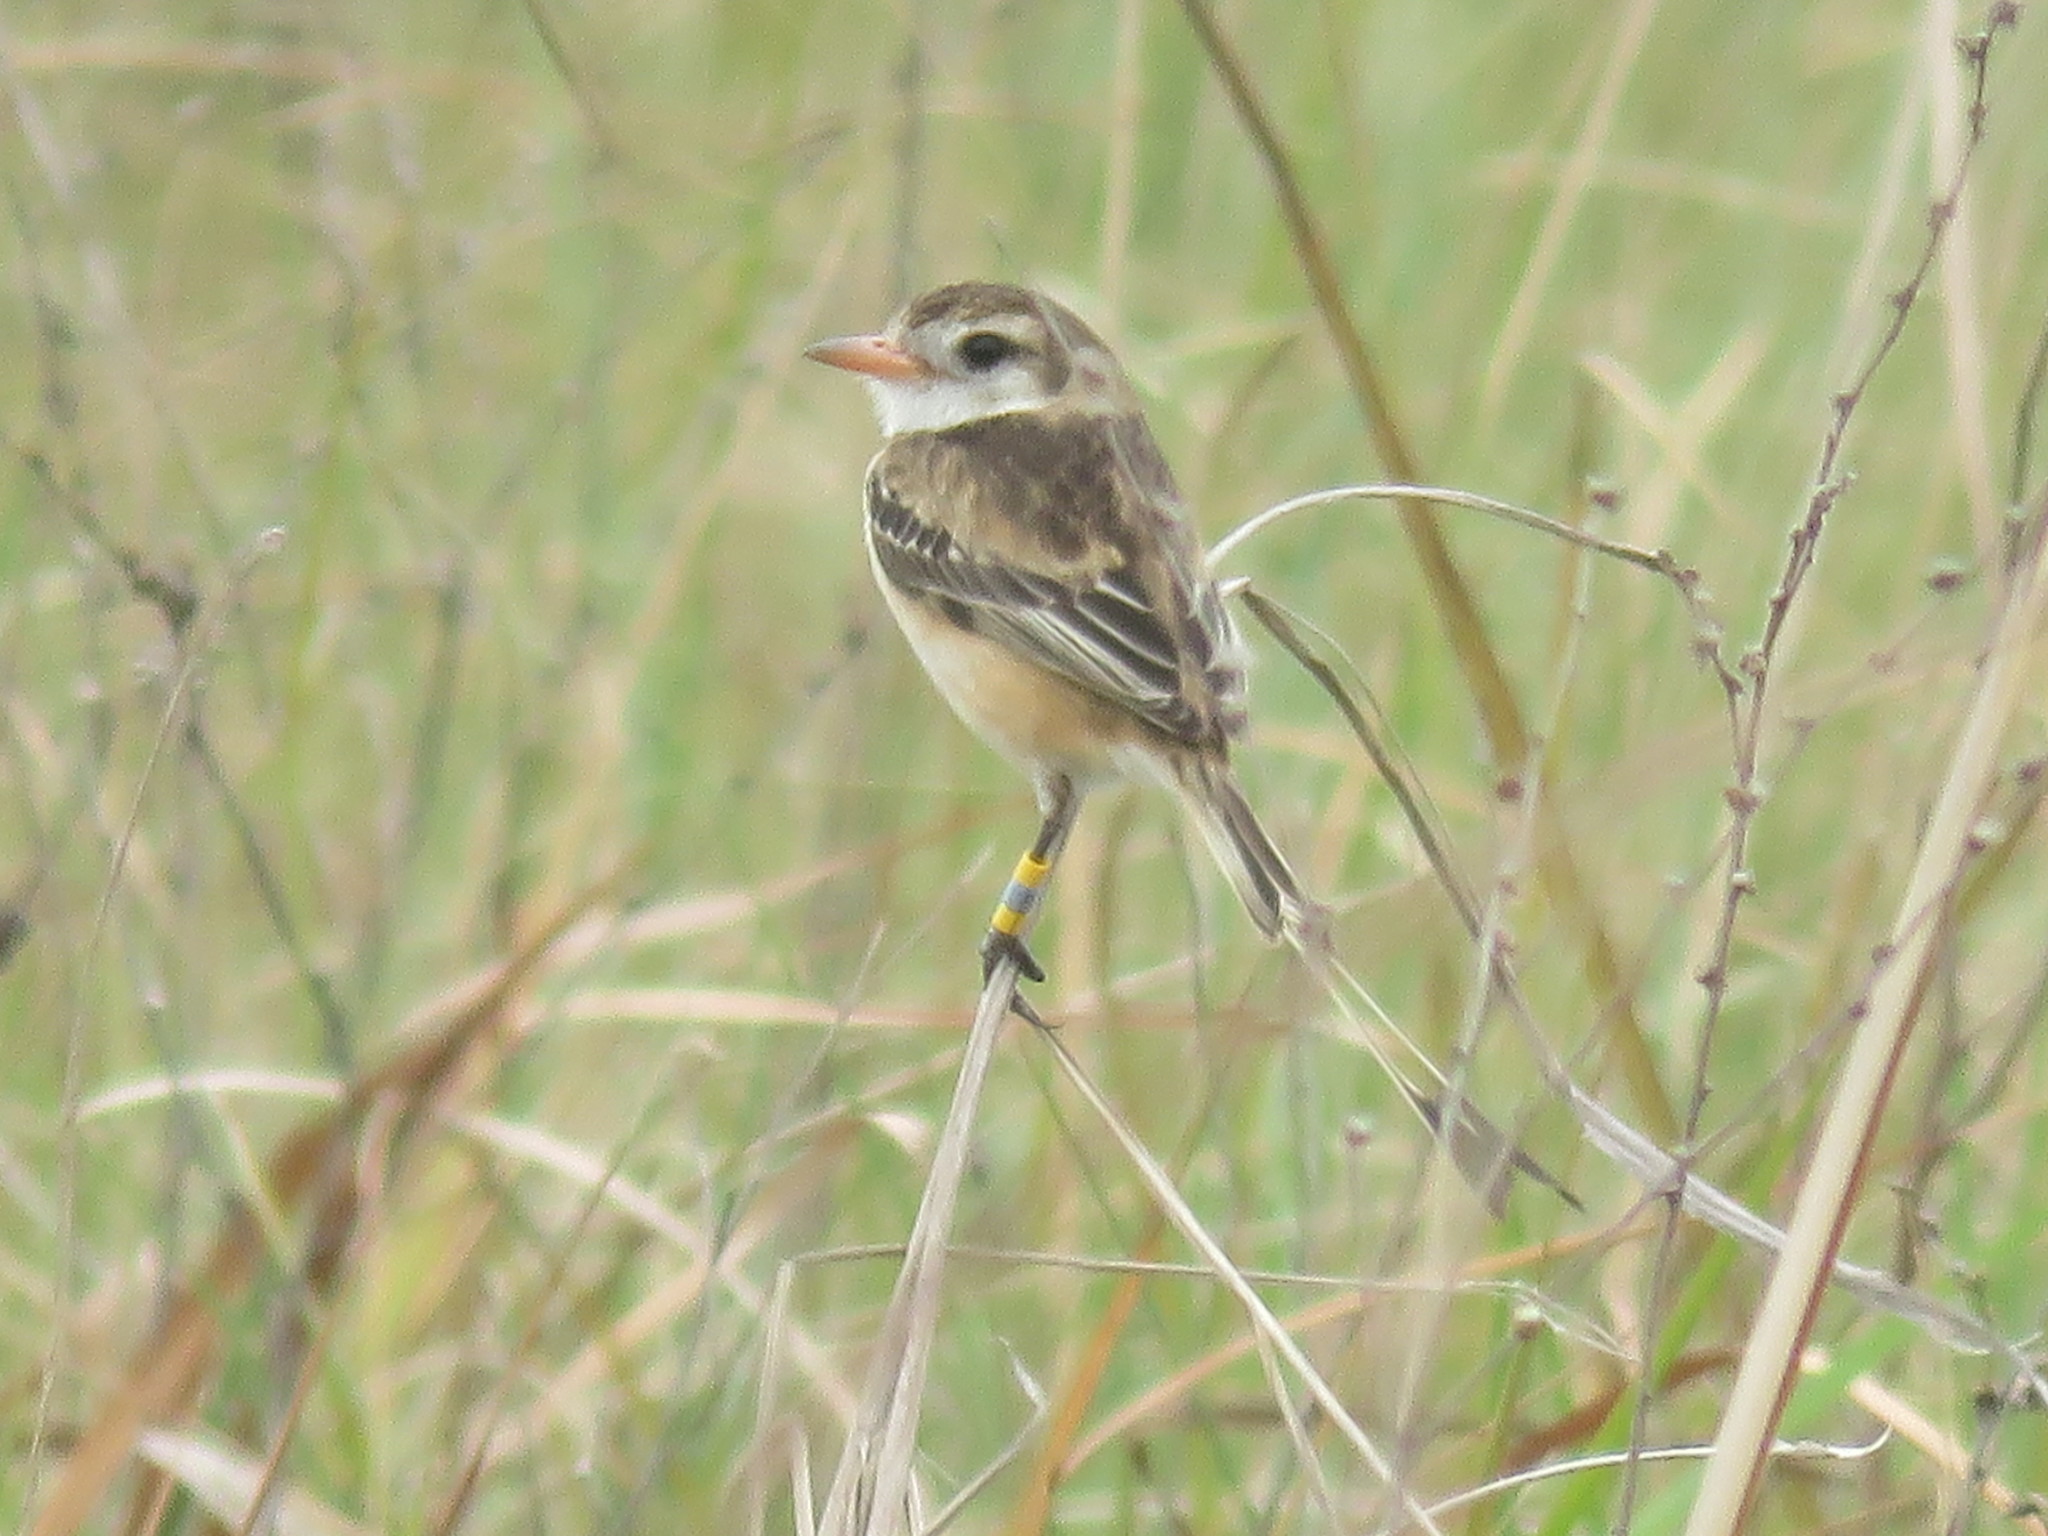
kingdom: Animalia
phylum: Chordata
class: Aves
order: Passeriformes
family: Tyrannidae
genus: Alectrurus
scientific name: Alectrurus risora
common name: Strange-tailed tyrant
